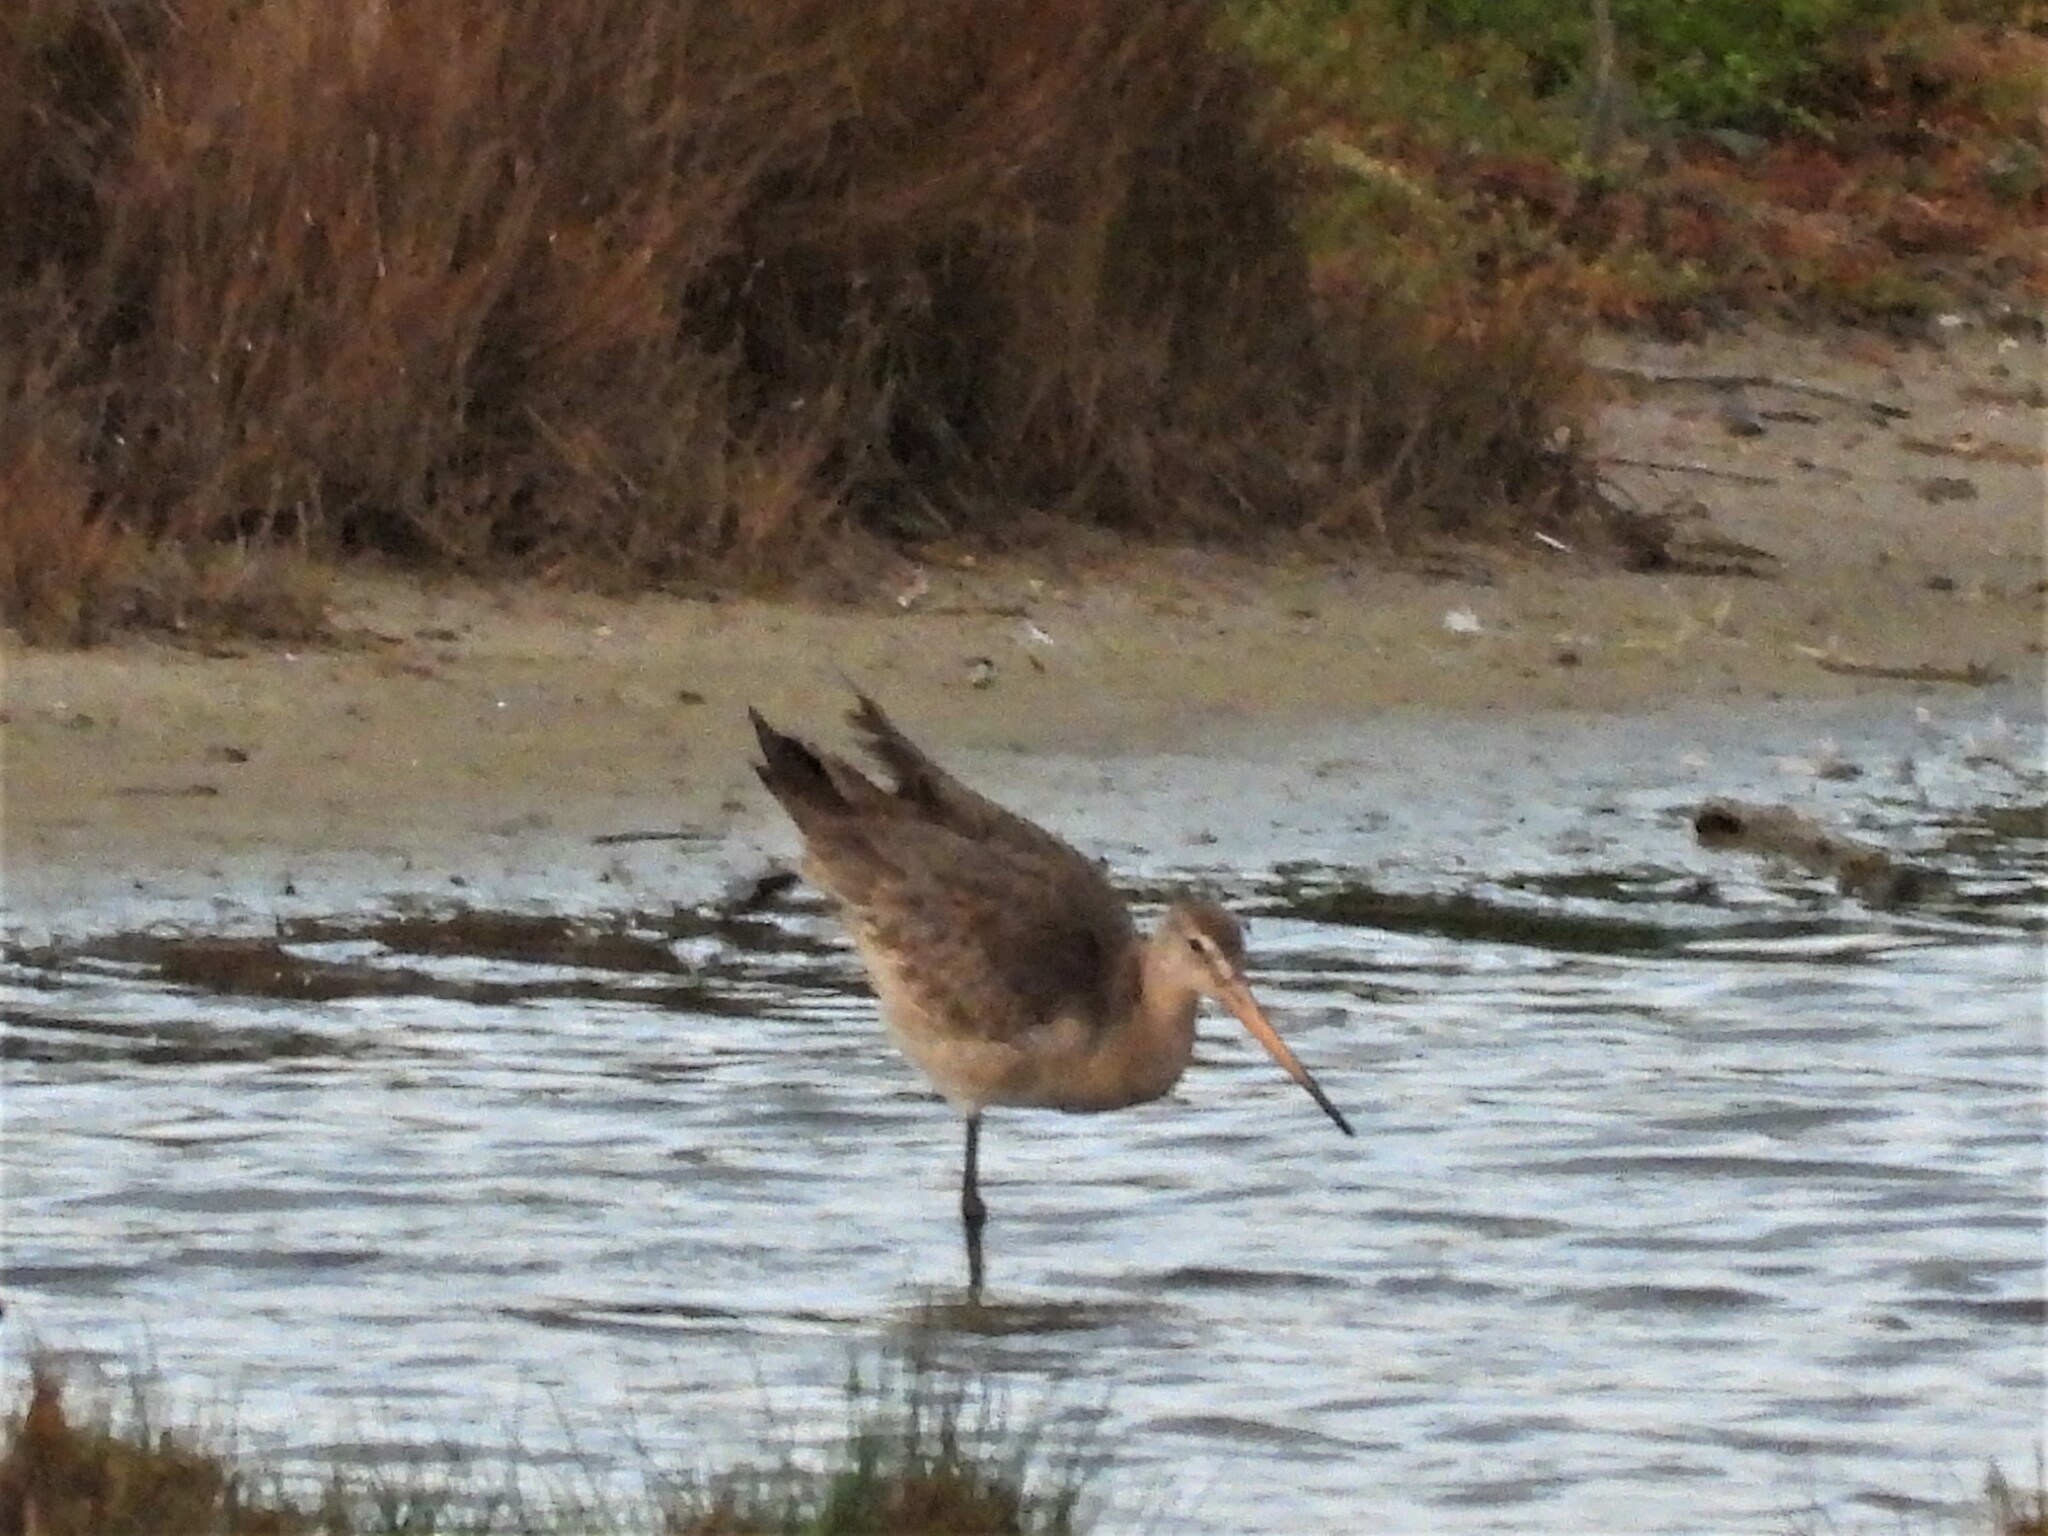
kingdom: Animalia
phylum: Chordata
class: Aves
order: Charadriiformes
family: Scolopacidae
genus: Limosa
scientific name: Limosa limosa
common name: Black-tailed godwit
